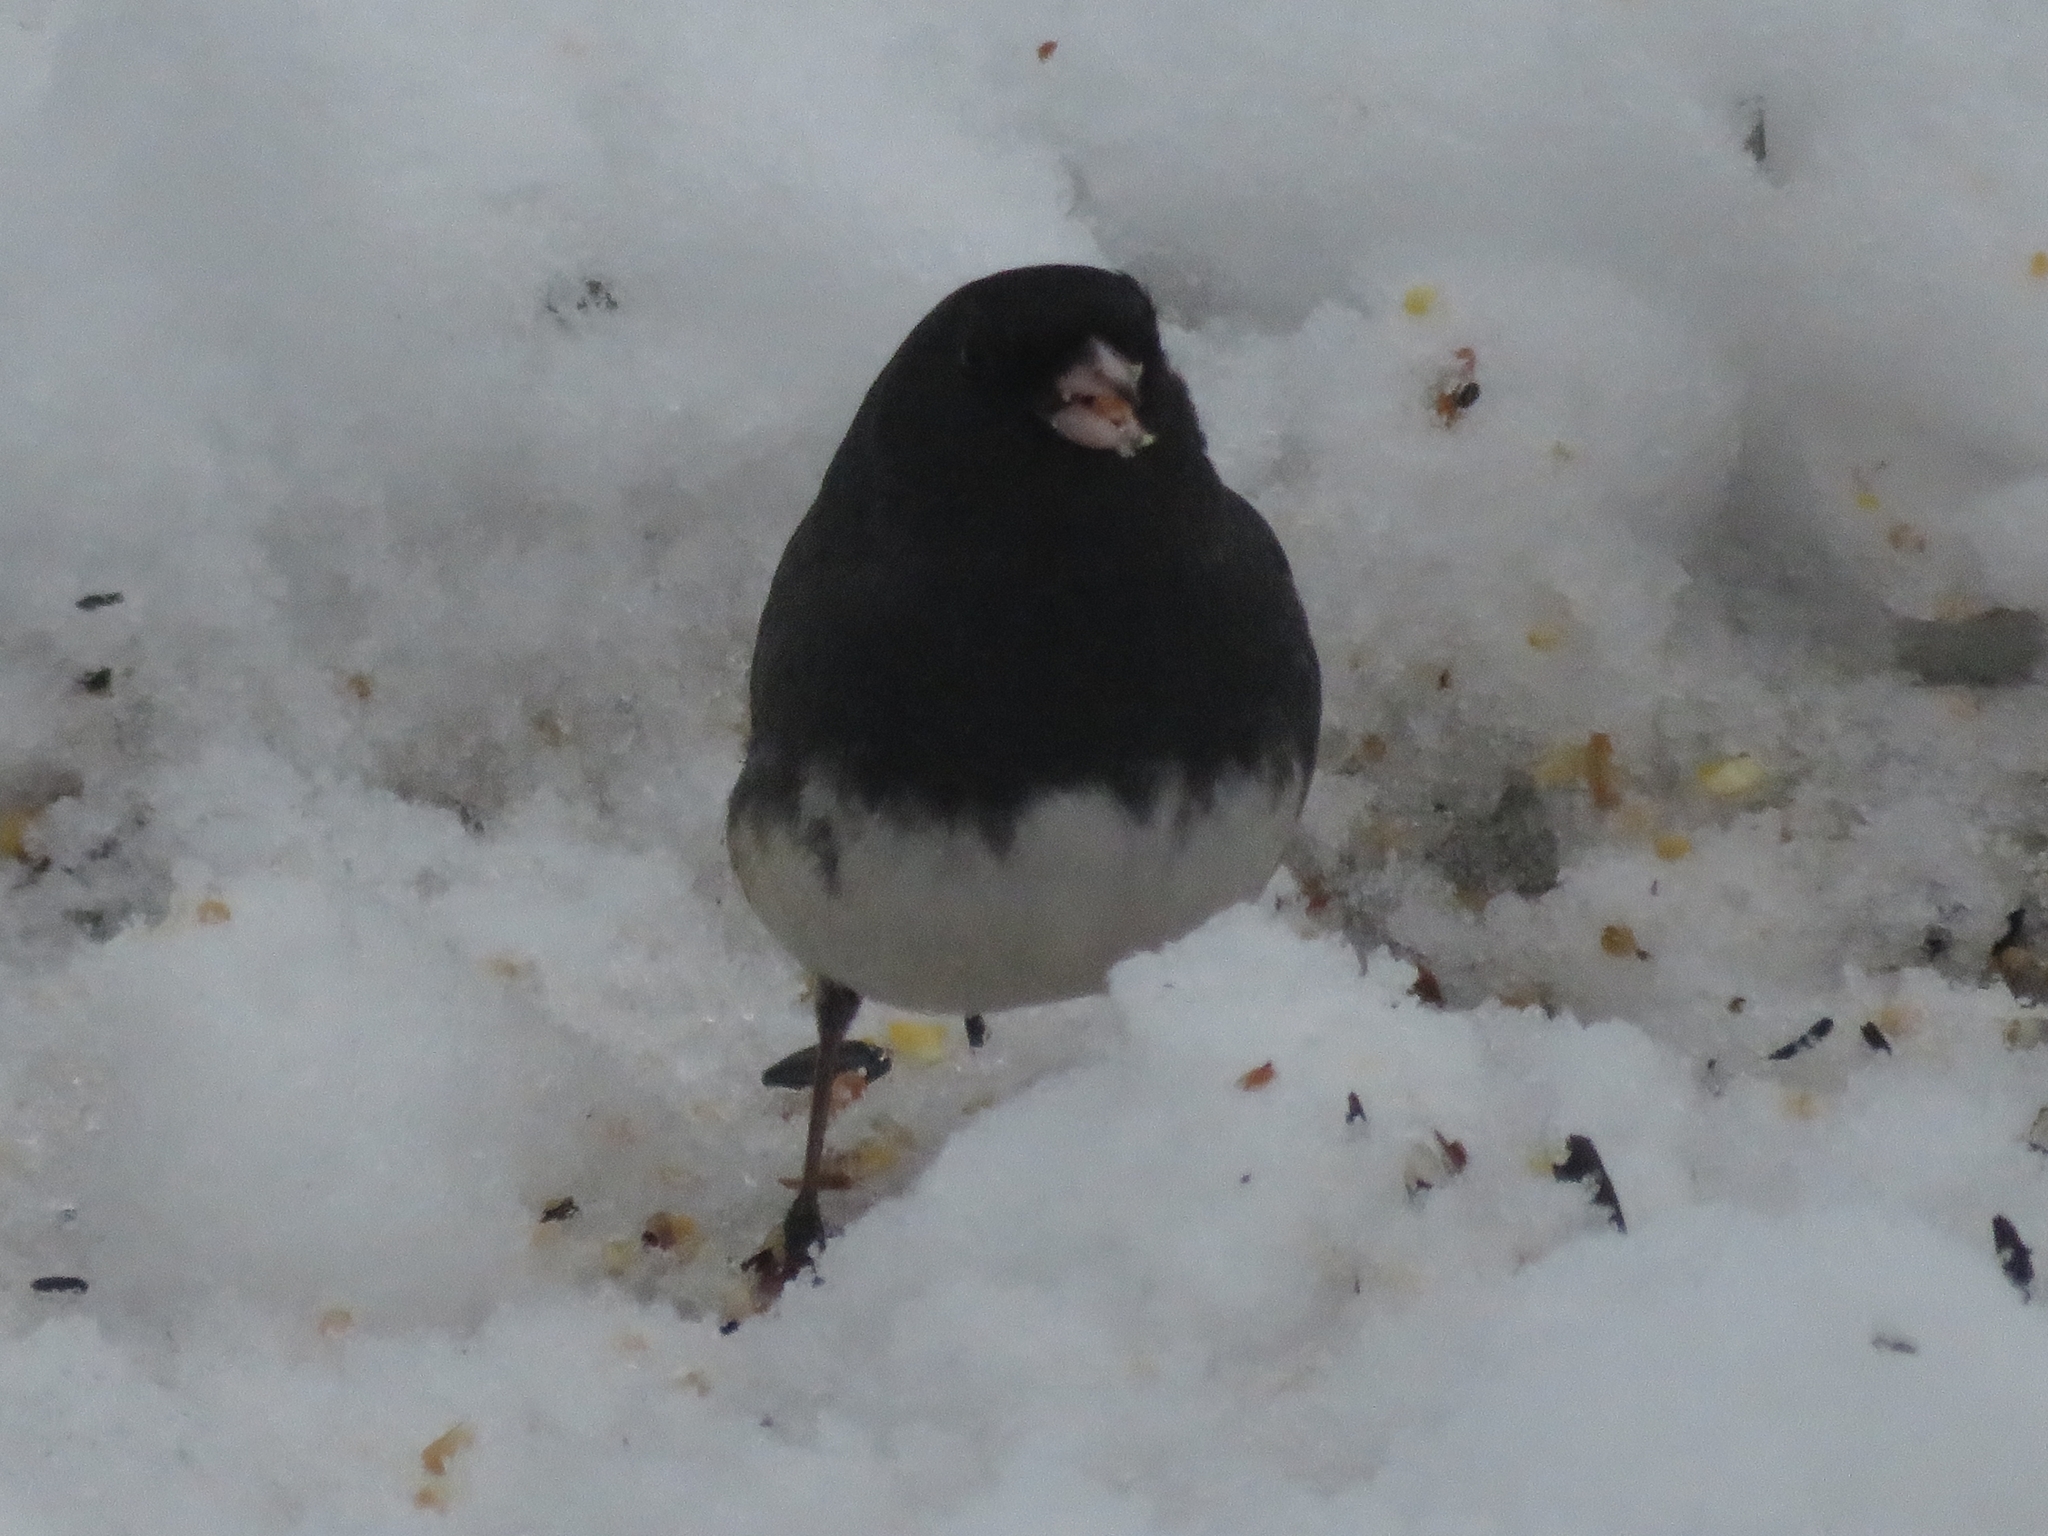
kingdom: Animalia
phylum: Chordata
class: Aves
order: Passeriformes
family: Passerellidae
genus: Junco
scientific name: Junco hyemalis
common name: Dark-eyed junco
